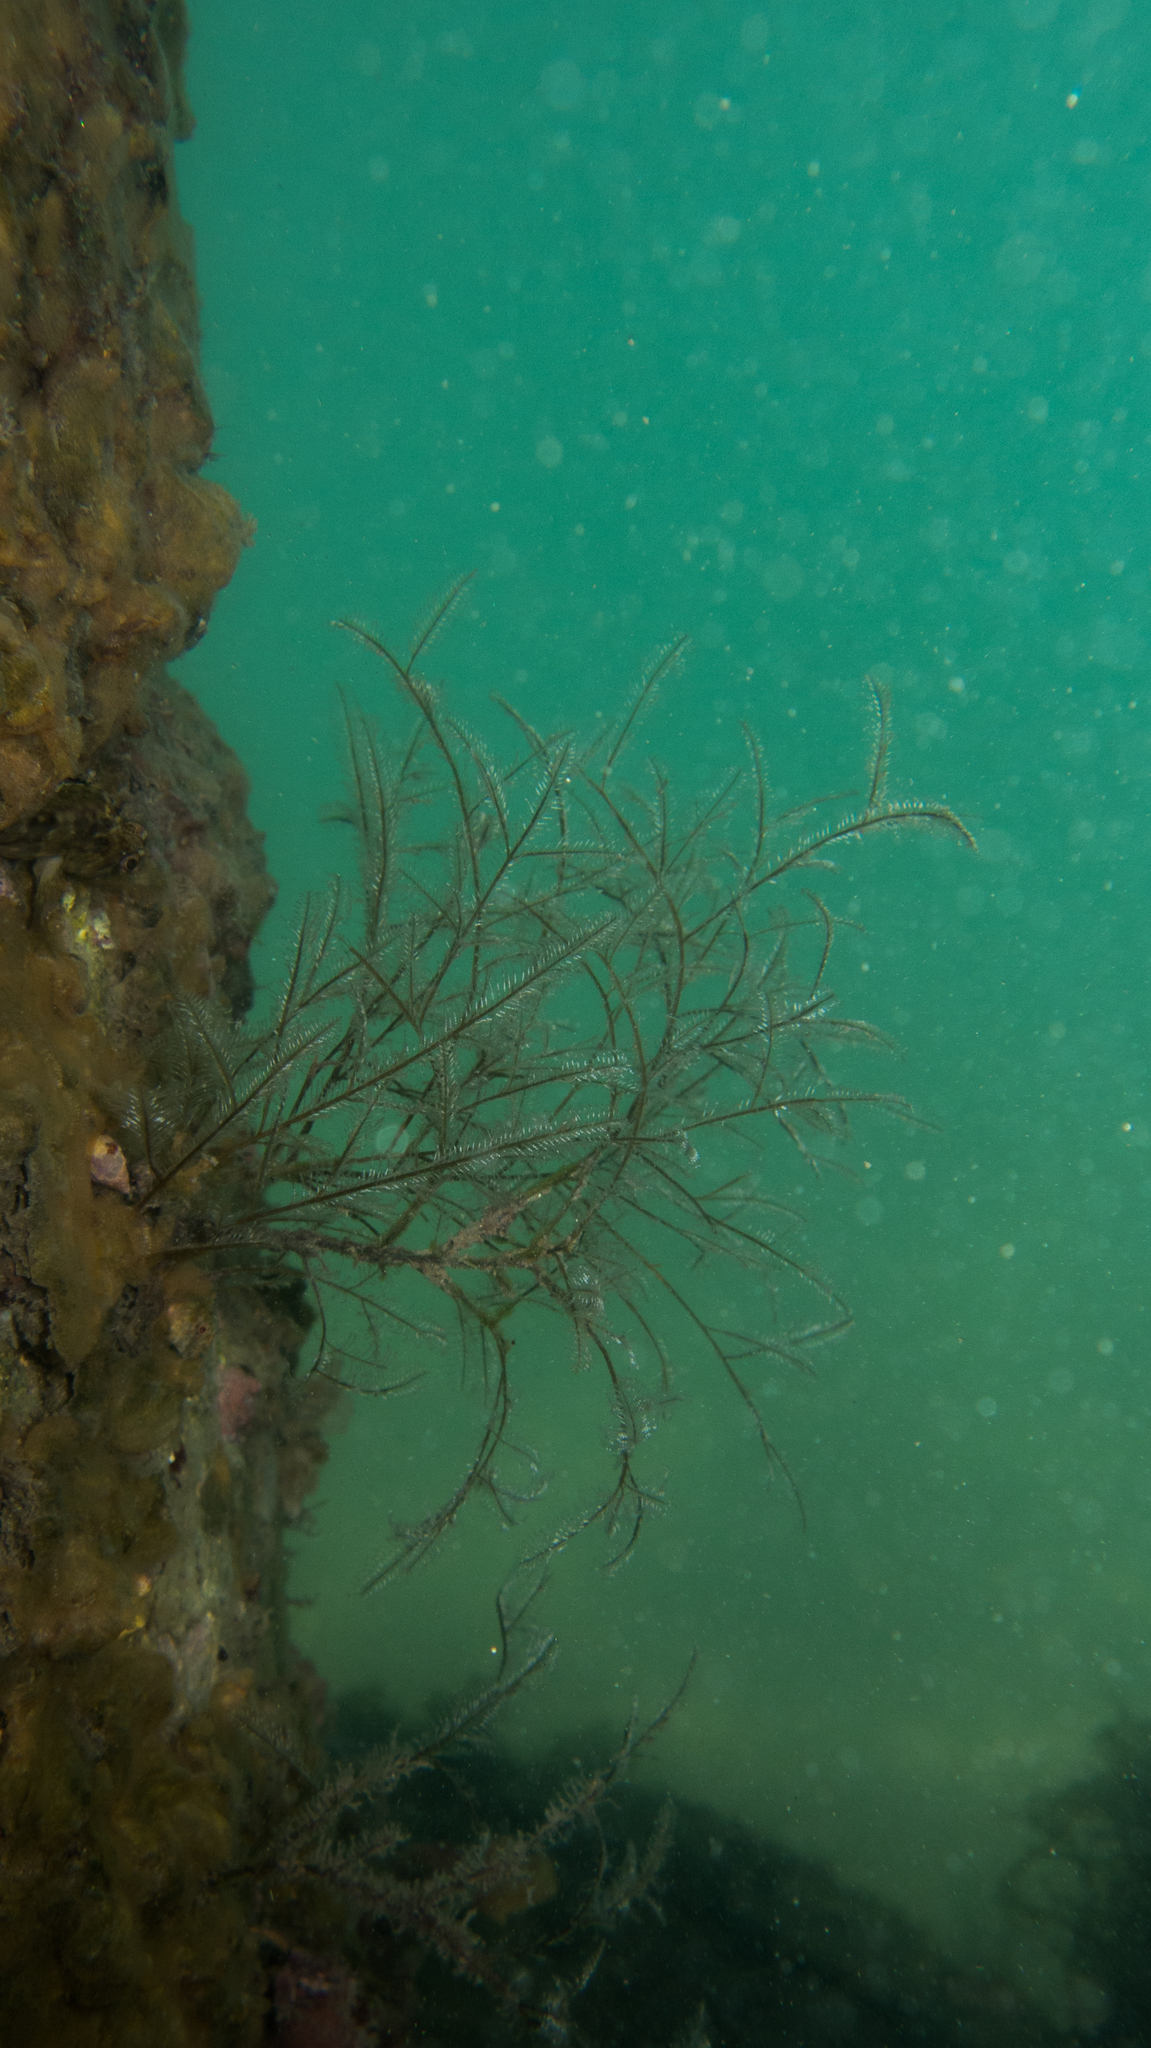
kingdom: Animalia
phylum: Cnidaria
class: Hydrozoa
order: Leptothecata
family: Aglaopheniidae
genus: Macrorhynchia
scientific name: Macrorhynchia philippina
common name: Stinging hydroid
